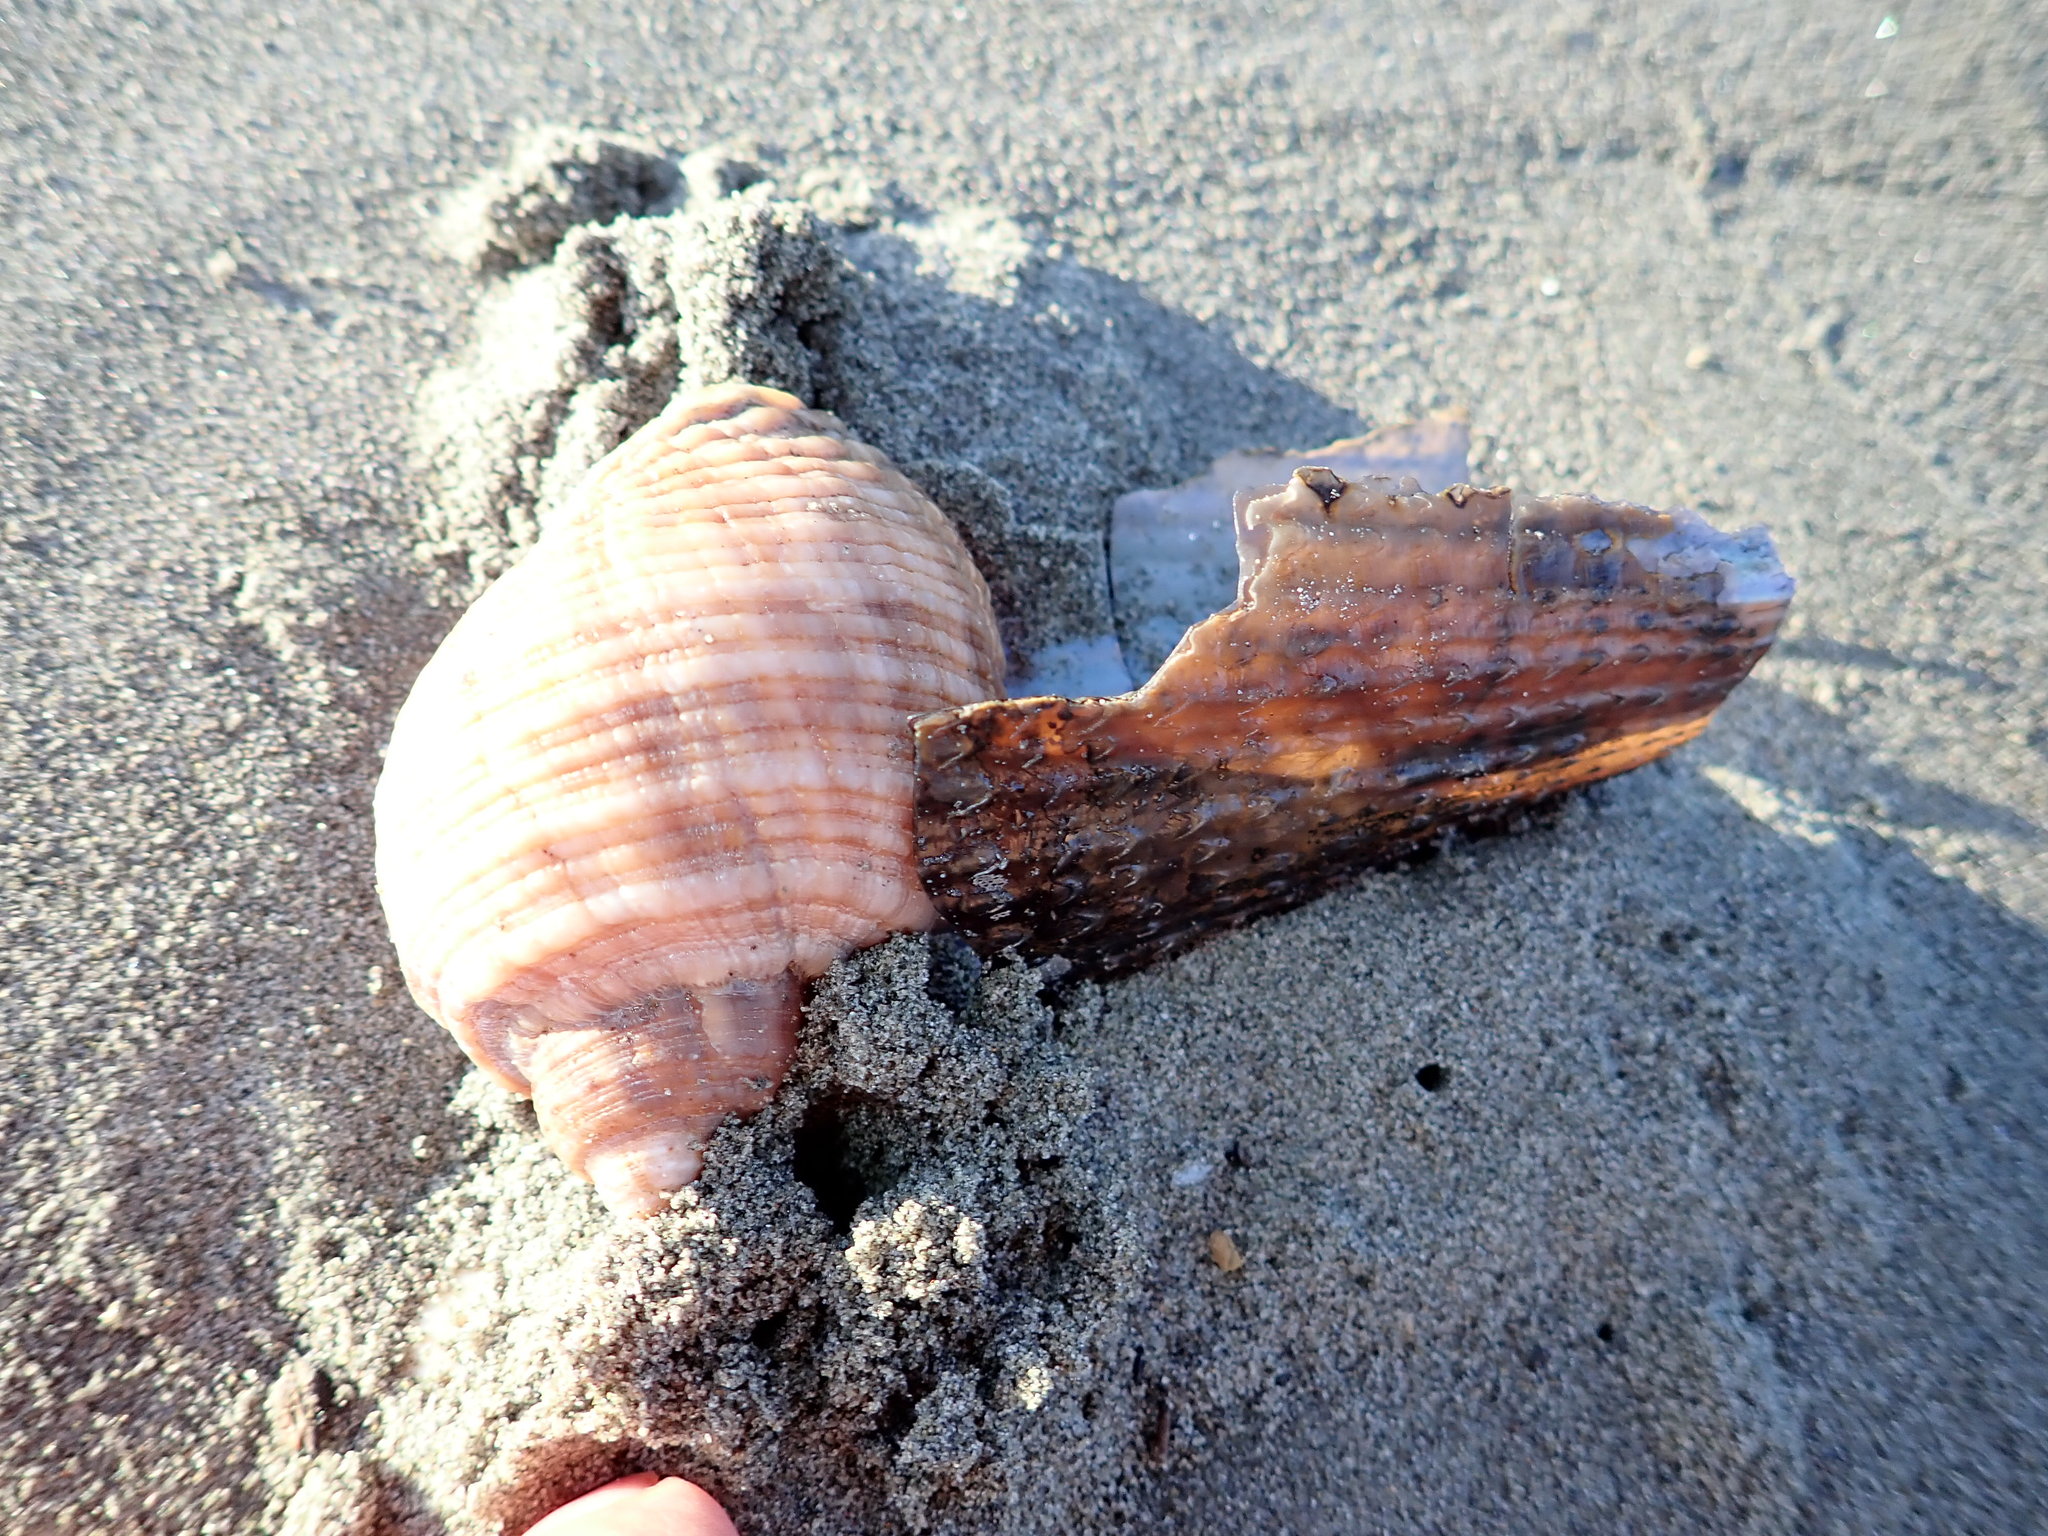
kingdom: Animalia
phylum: Mollusca
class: Gastropoda
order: Neogastropoda
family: Muricidae
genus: Dicathais
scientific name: Dicathais orbita
